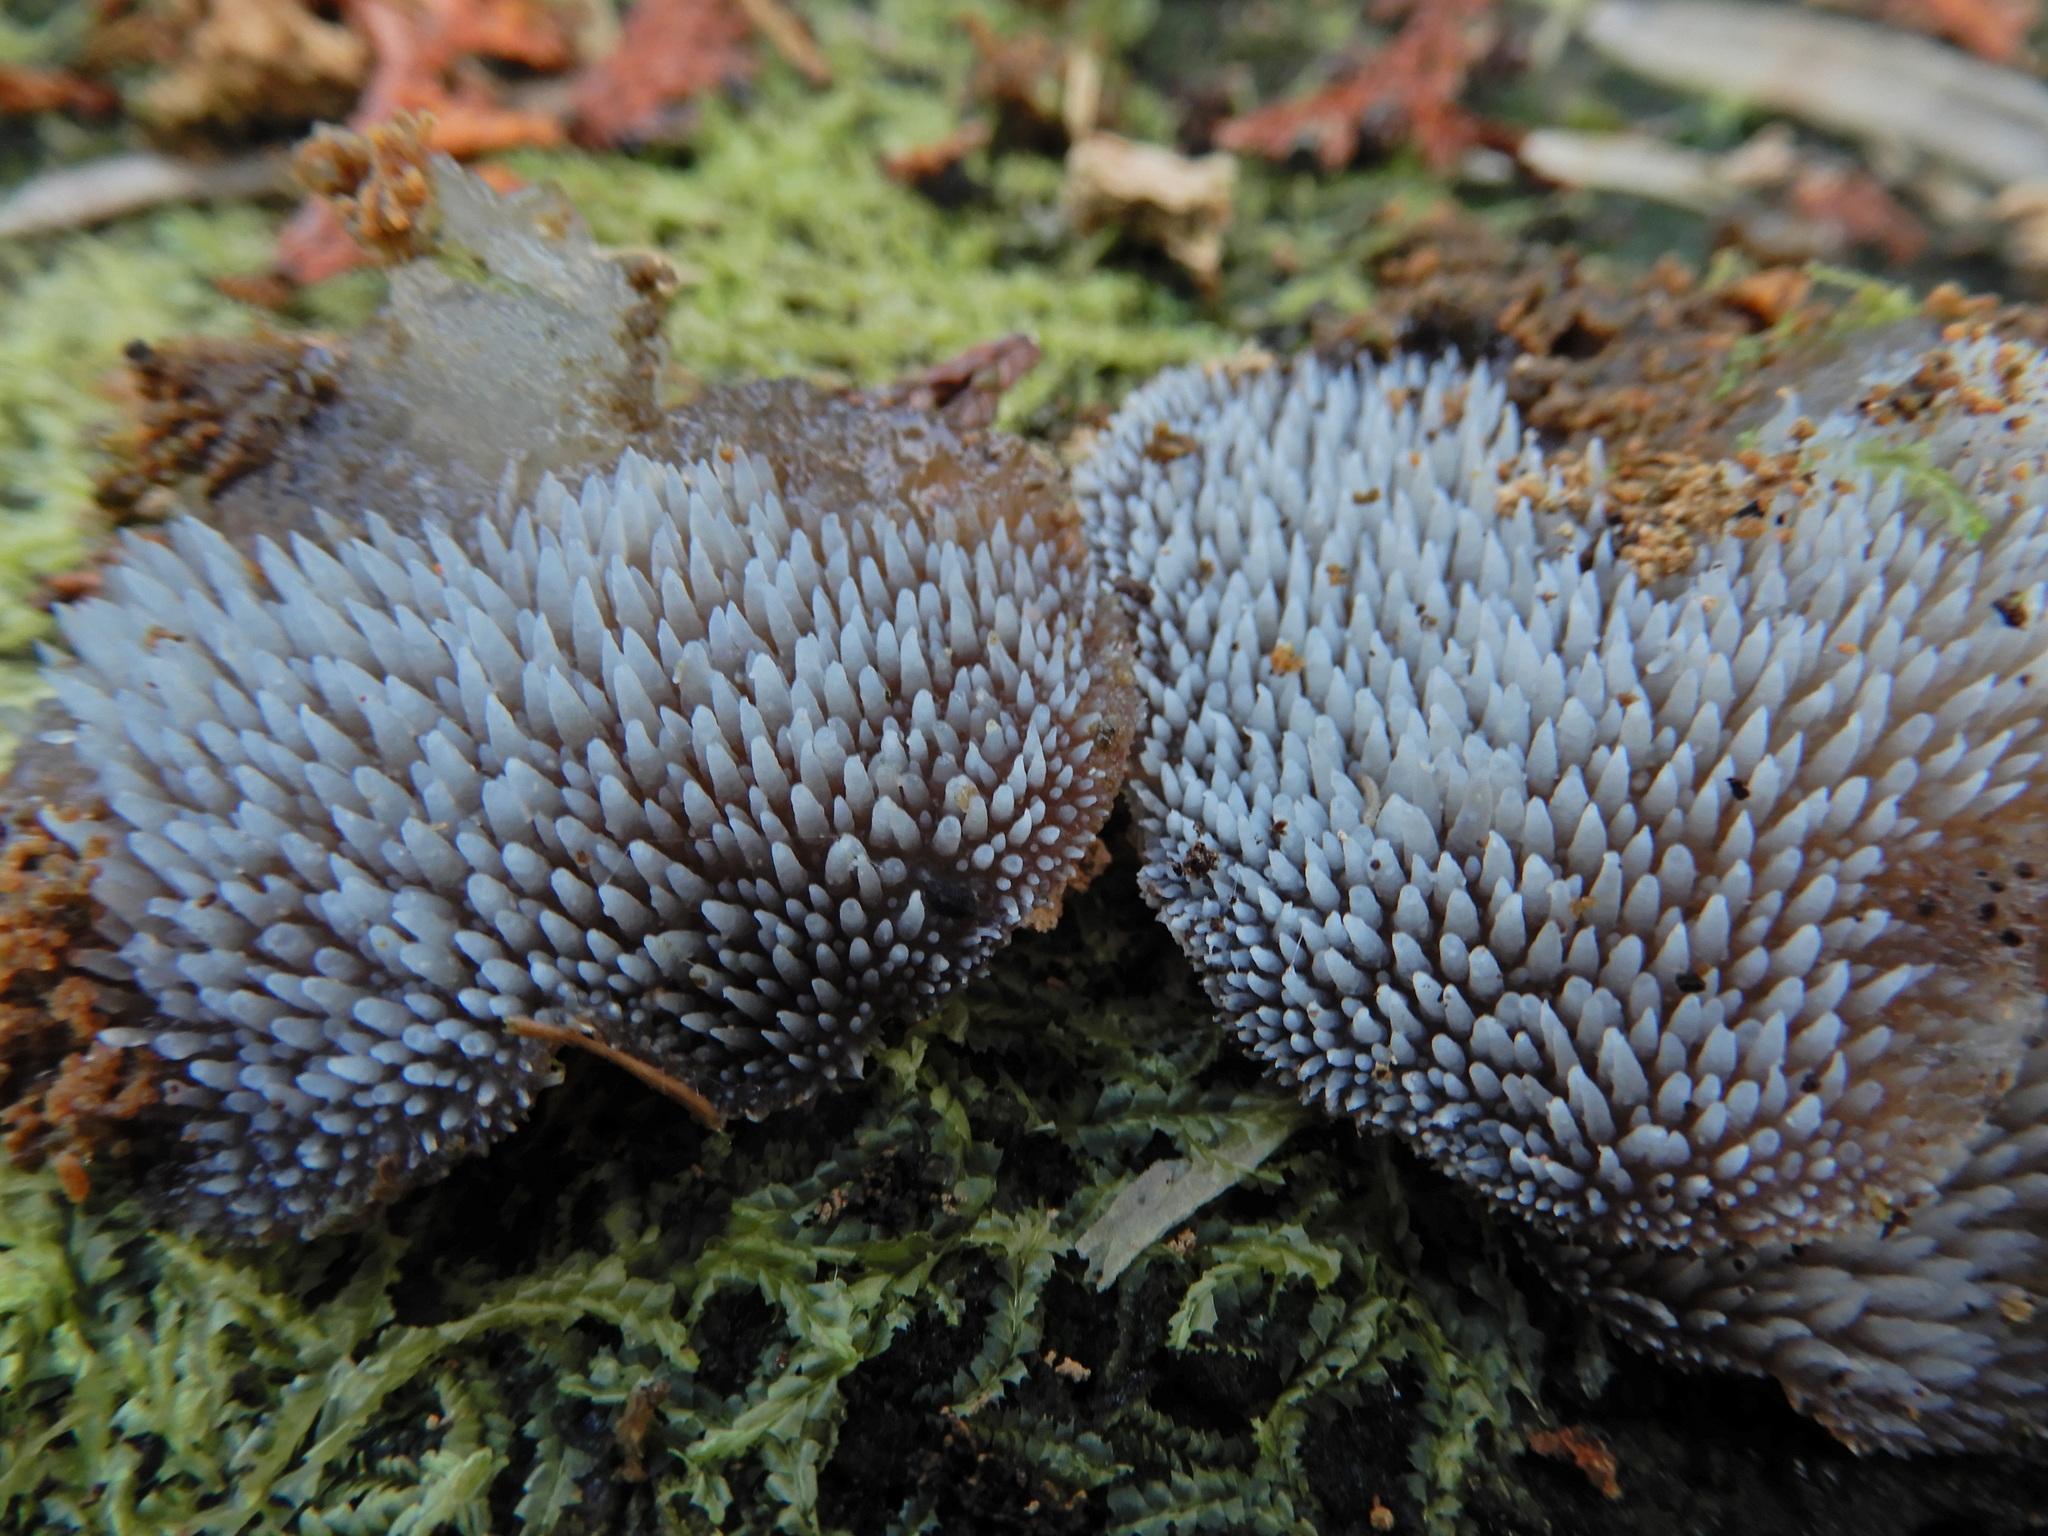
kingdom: Fungi
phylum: Basidiomycota
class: Agaricomycetes
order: Auriculariales
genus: Pseudohydnum
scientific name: Pseudohydnum orbiculare
